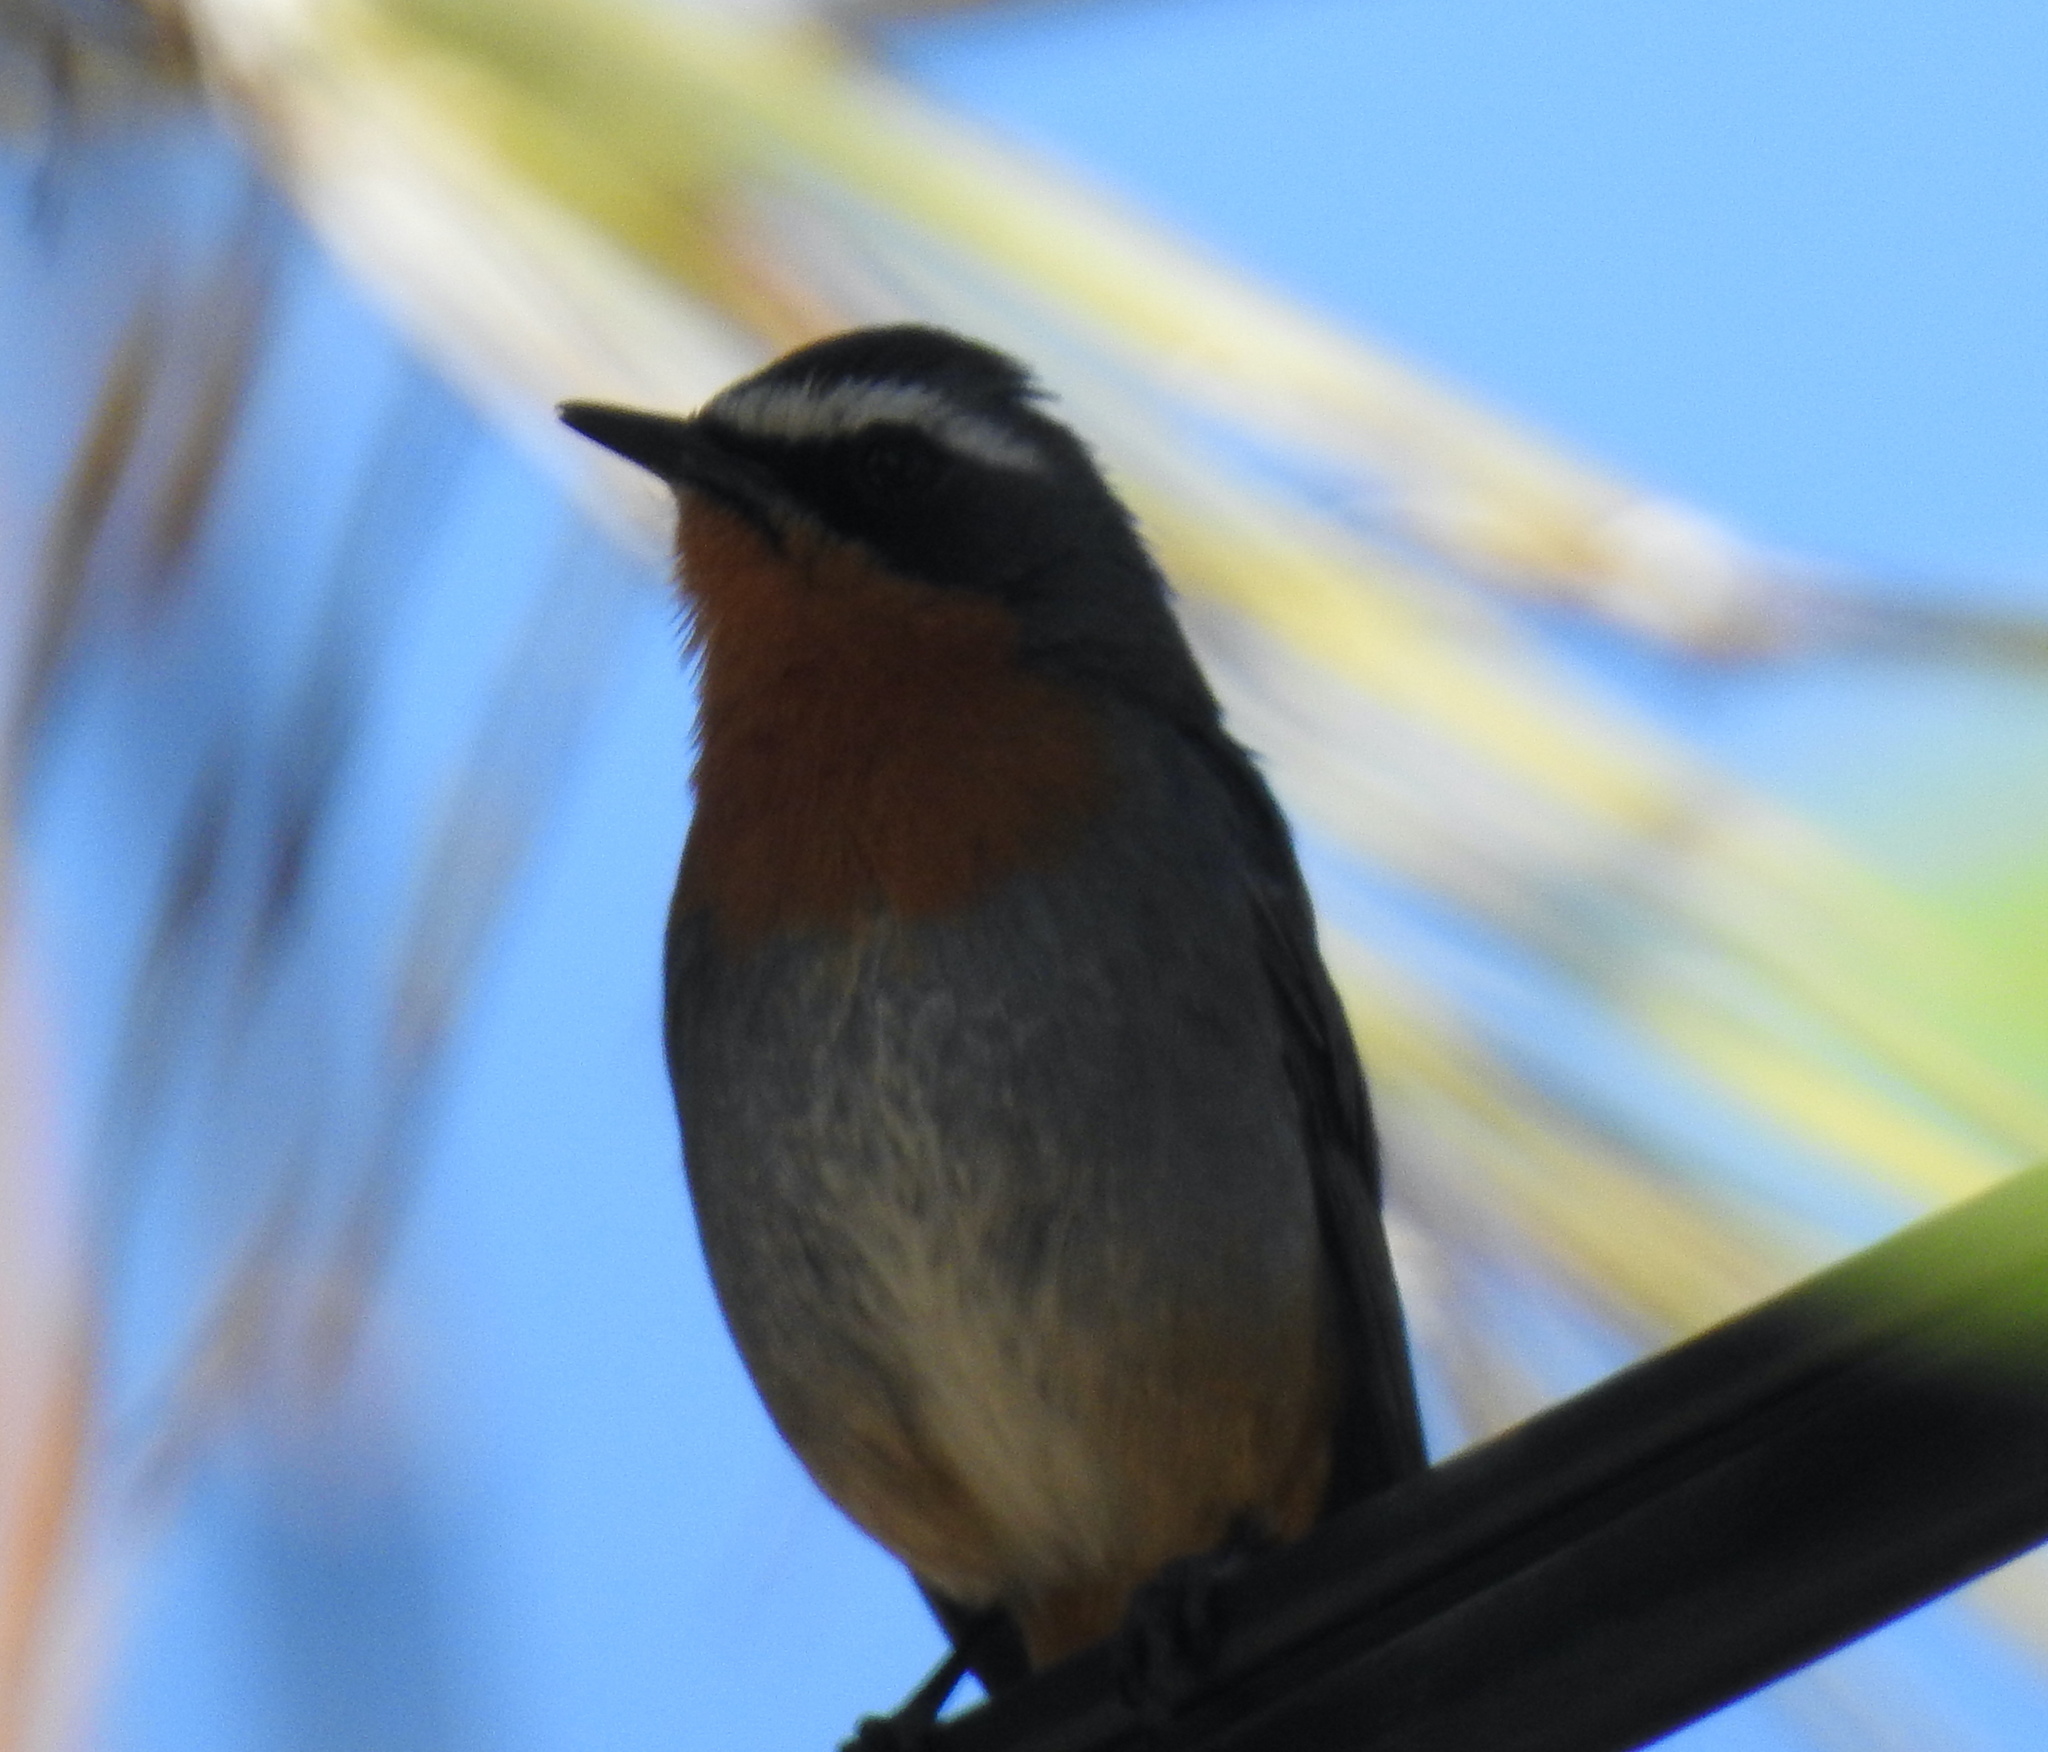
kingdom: Animalia
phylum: Chordata
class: Aves
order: Passeriformes
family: Muscicapidae
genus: Cossypha
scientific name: Cossypha caffra
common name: Cape robin-chat
